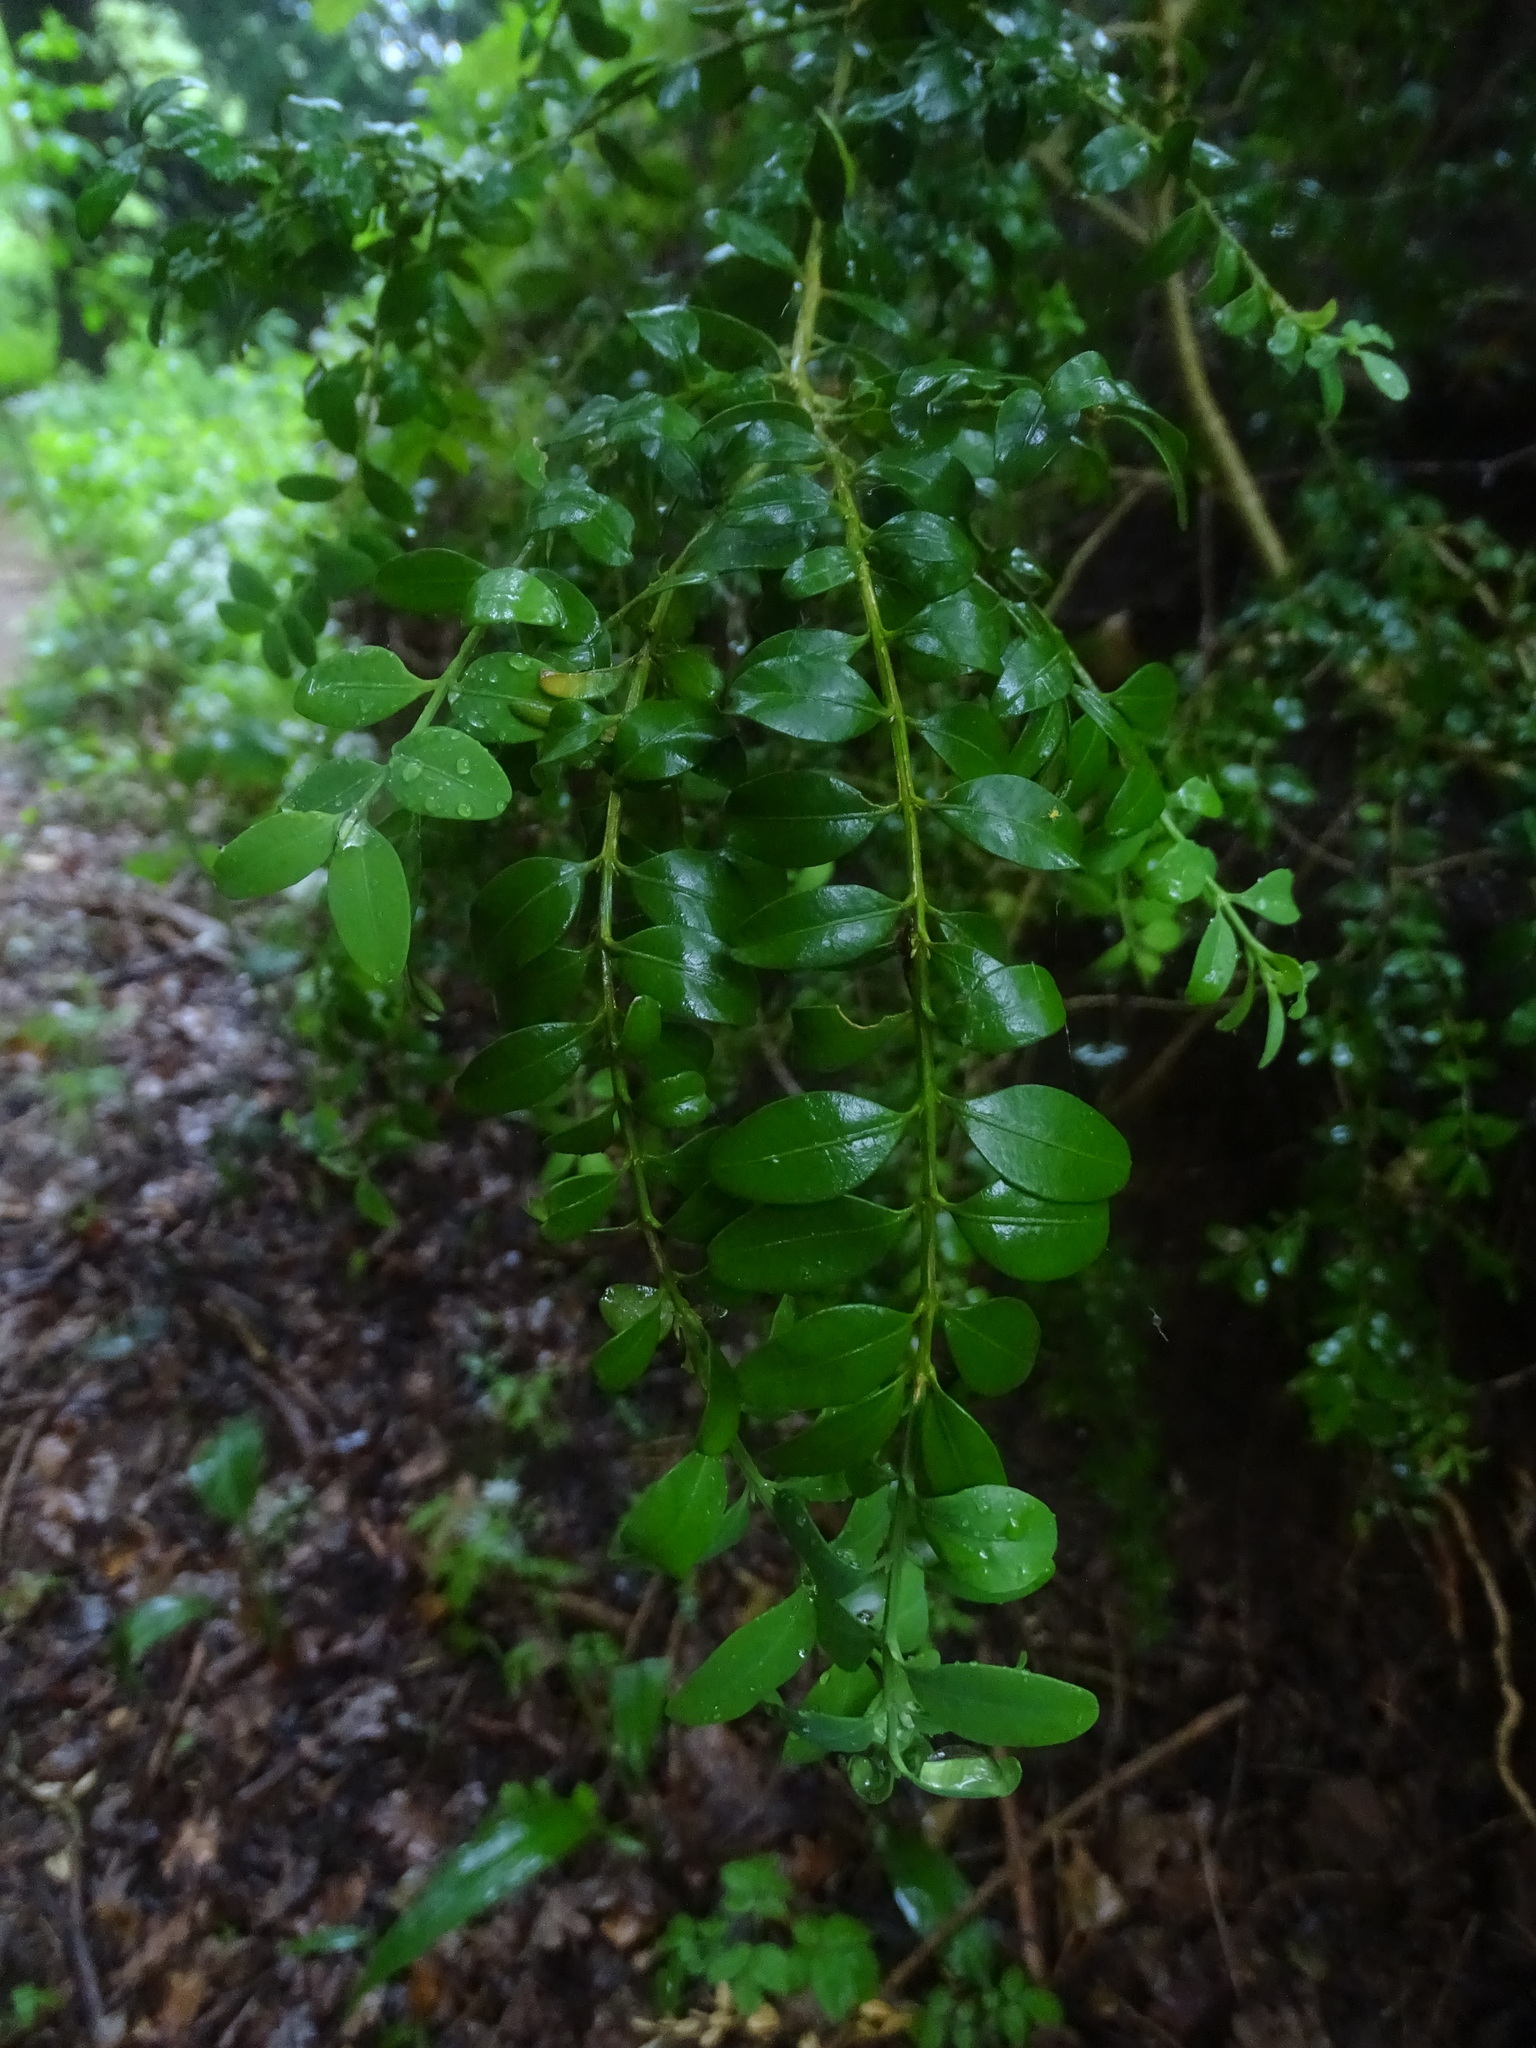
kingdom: Plantae
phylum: Tracheophyta
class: Magnoliopsida
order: Buxales
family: Buxaceae
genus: Buxus
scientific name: Buxus sempervirens
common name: Box
